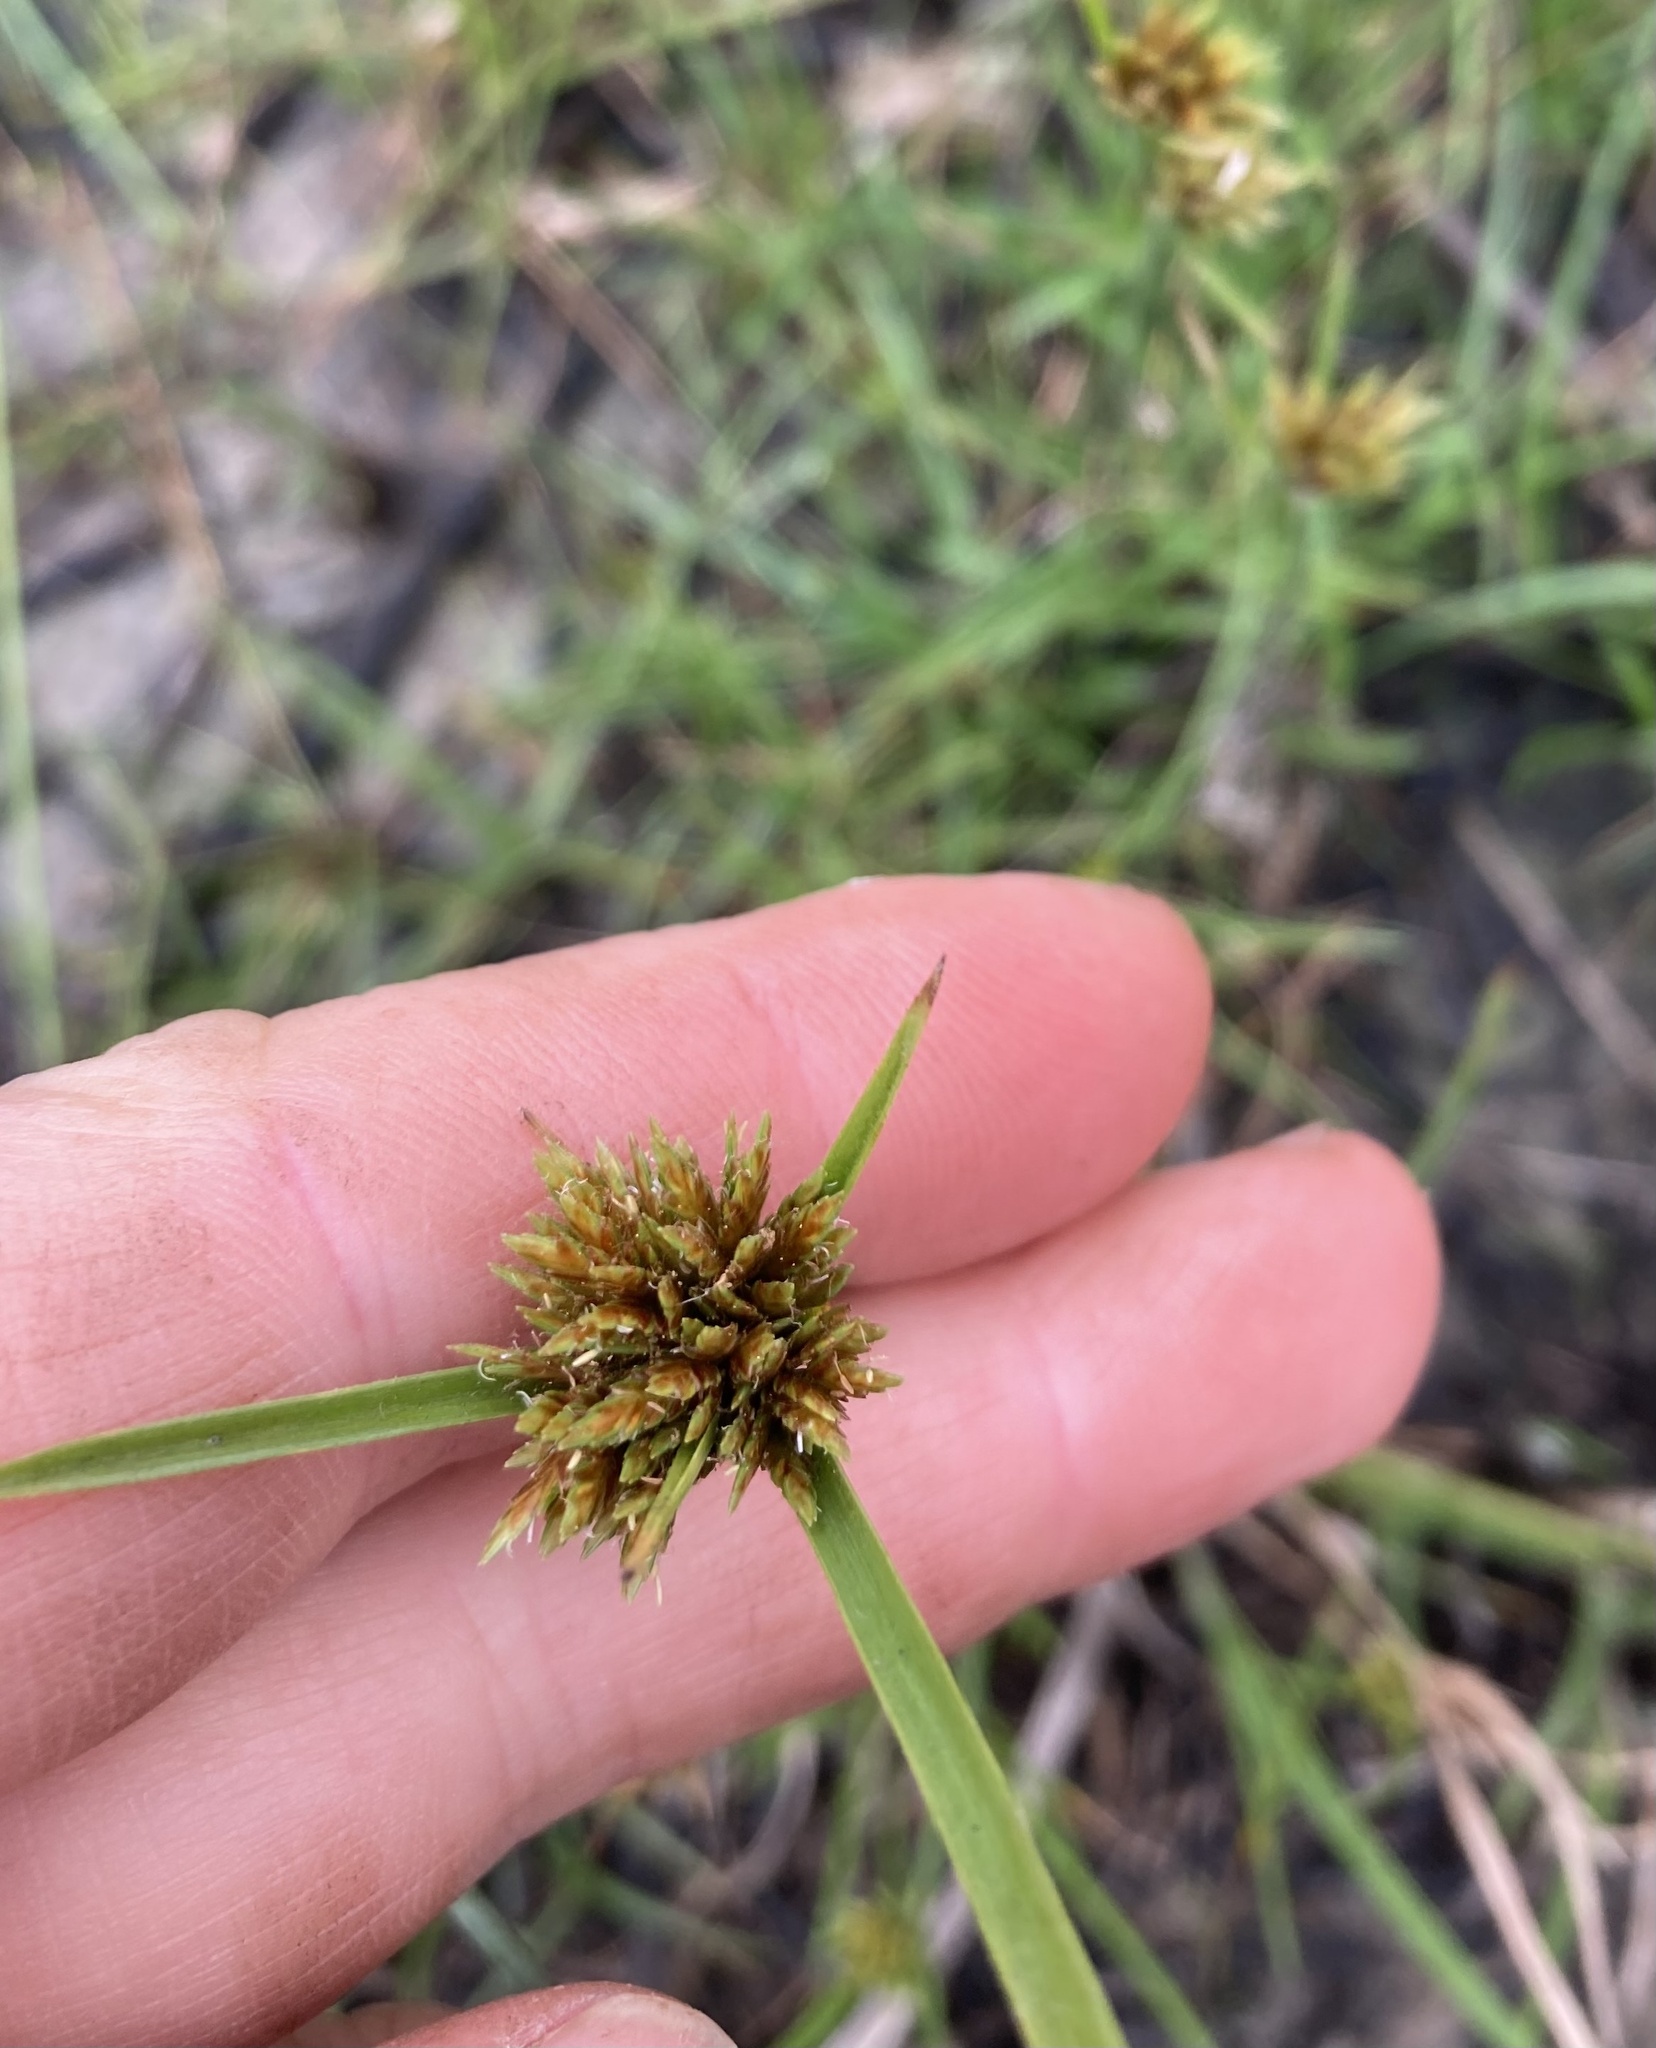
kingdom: Plantae
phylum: Tracheophyta
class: Liliopsida
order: Poales
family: Cyperaceae
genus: Cyperus
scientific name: Cyperus congestus
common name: Dense flat sedge
